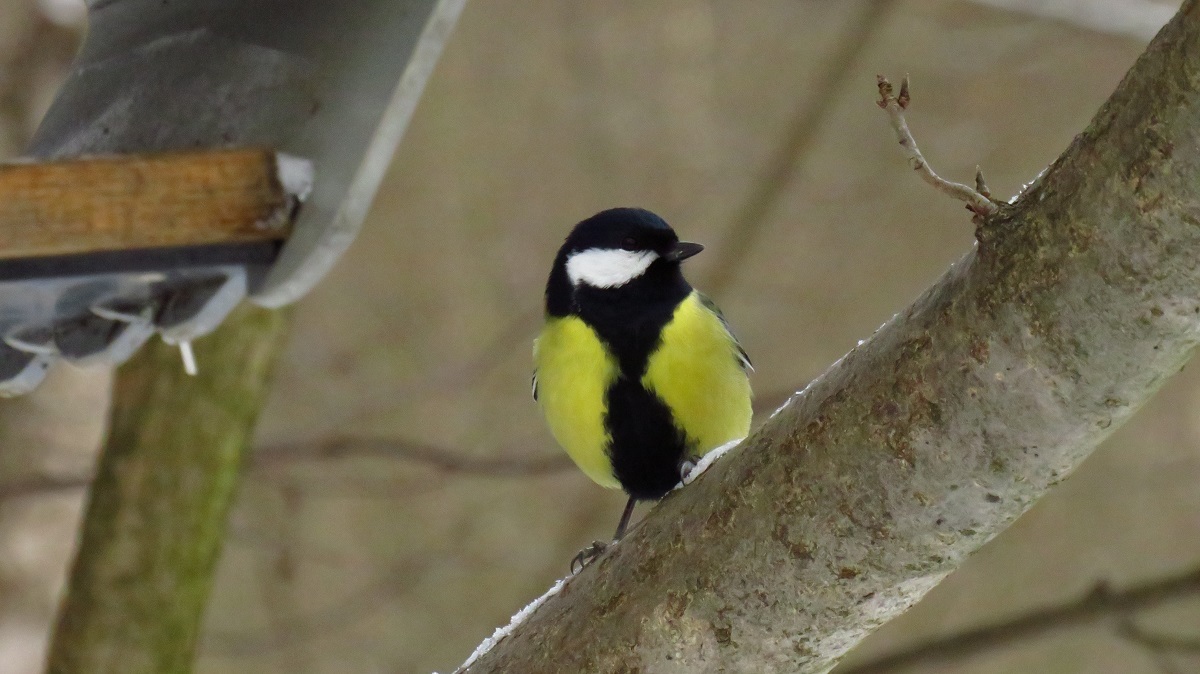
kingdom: Animalia
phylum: Chordata
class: Aves
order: Passeriformes
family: Paridae
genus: Parus
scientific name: Parus major
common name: Great tit
